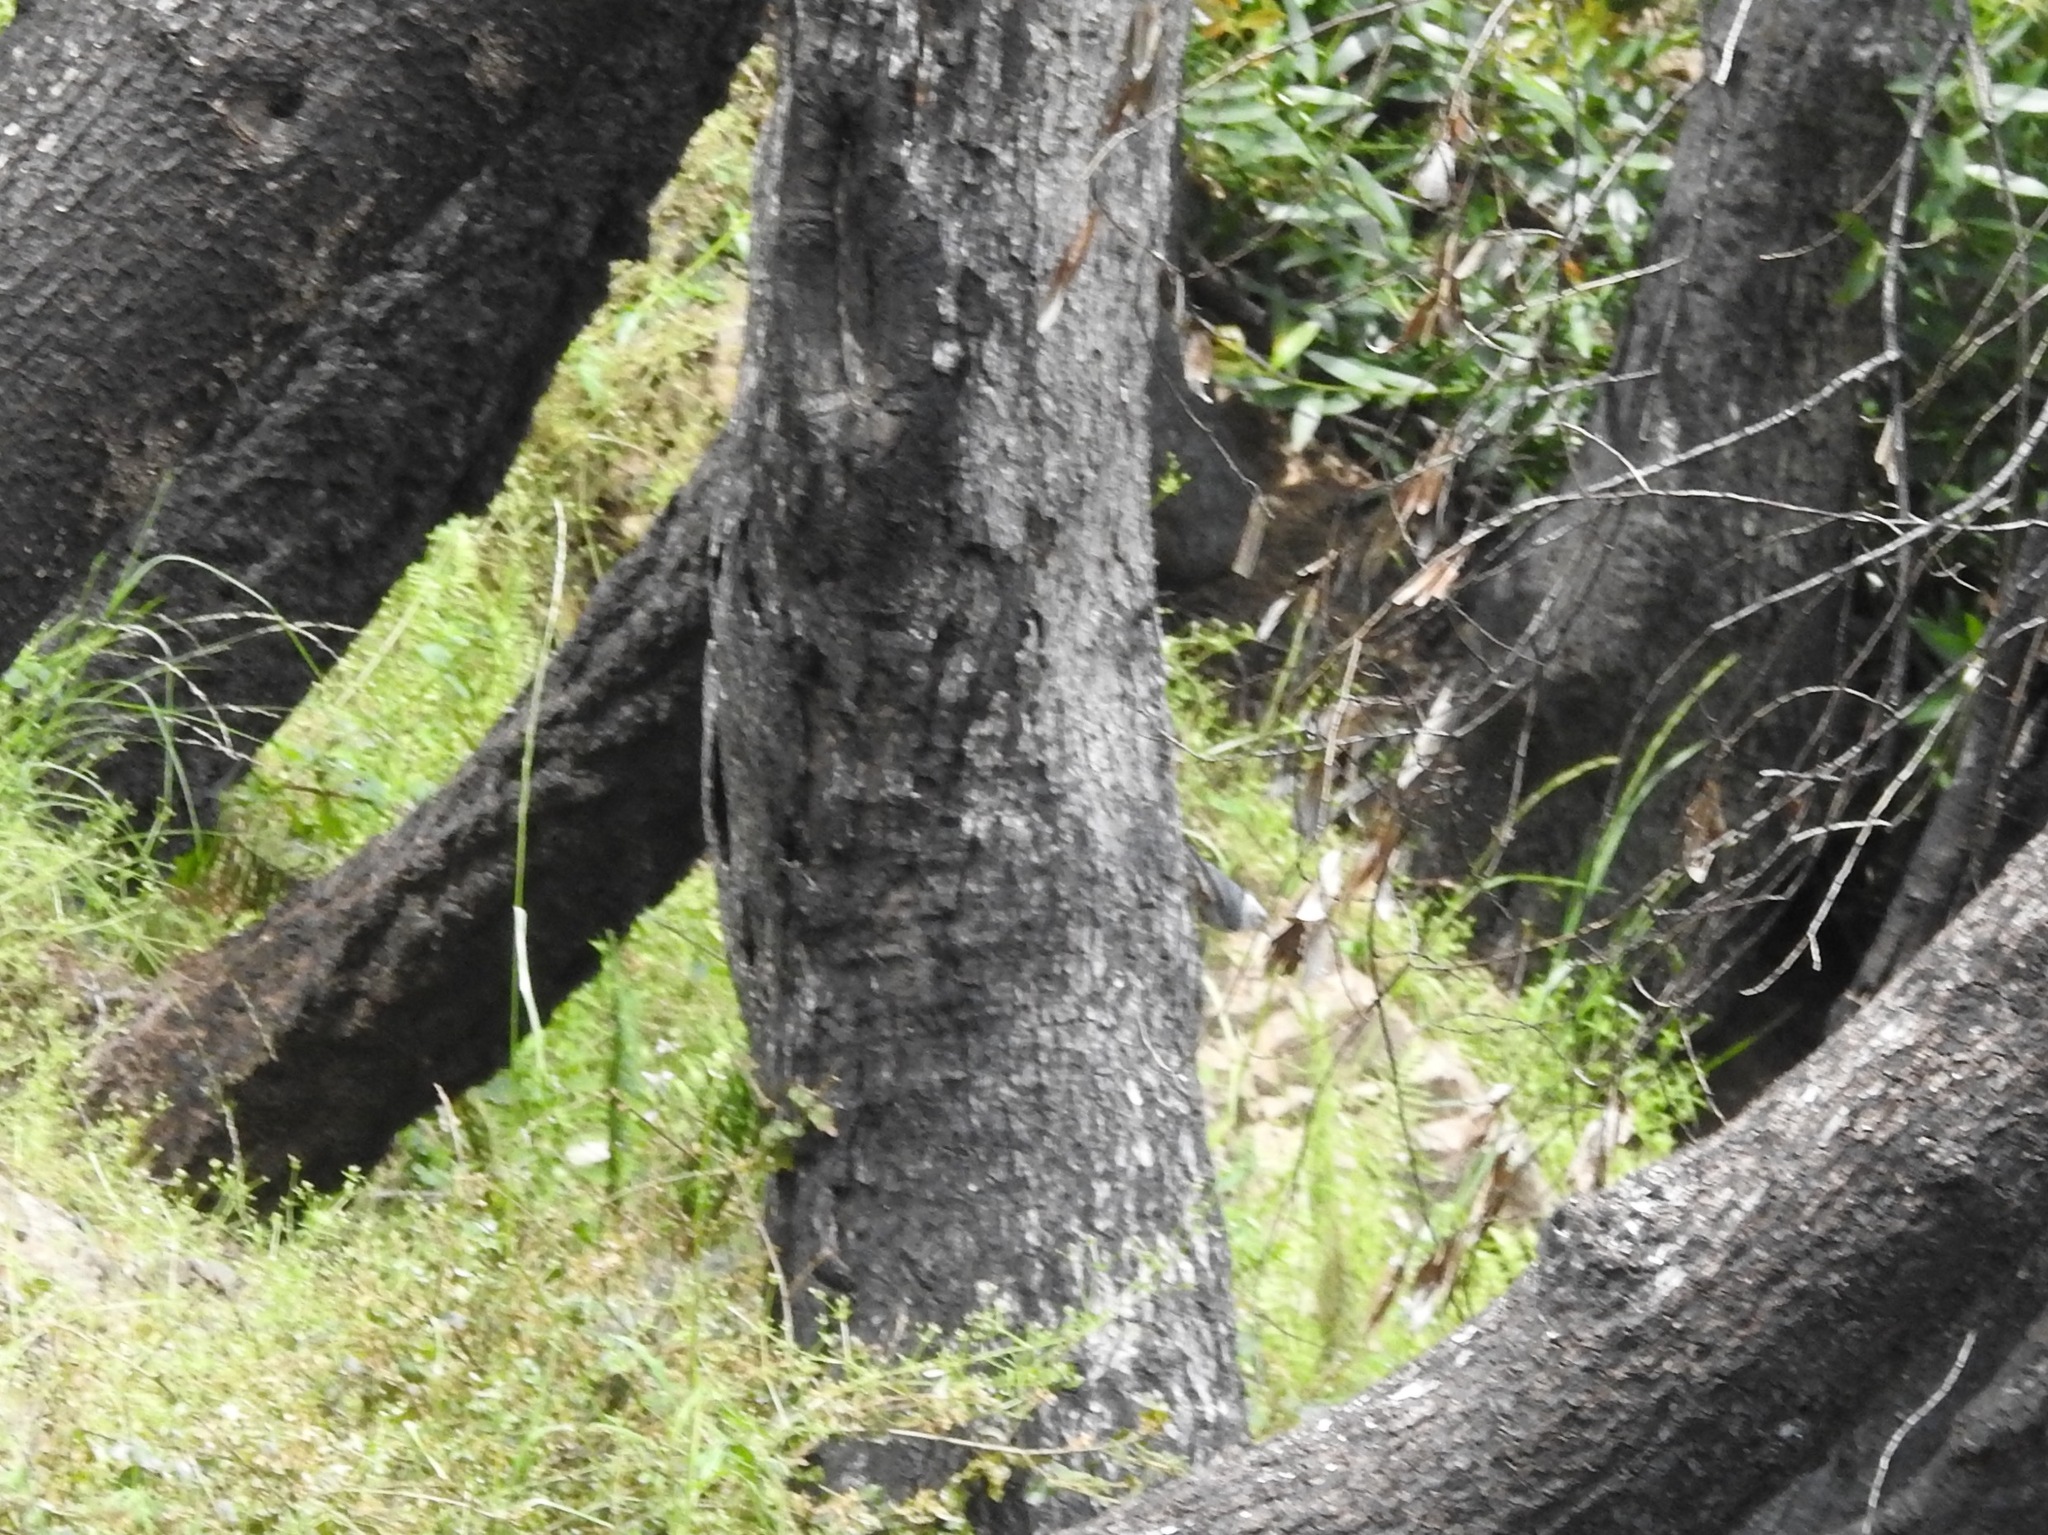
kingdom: Animalia
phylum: Chordata
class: Aves
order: Passeriformes
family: Sittidae
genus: Sitta
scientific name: Sitta carolinensis
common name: White-breasted nuthatch
